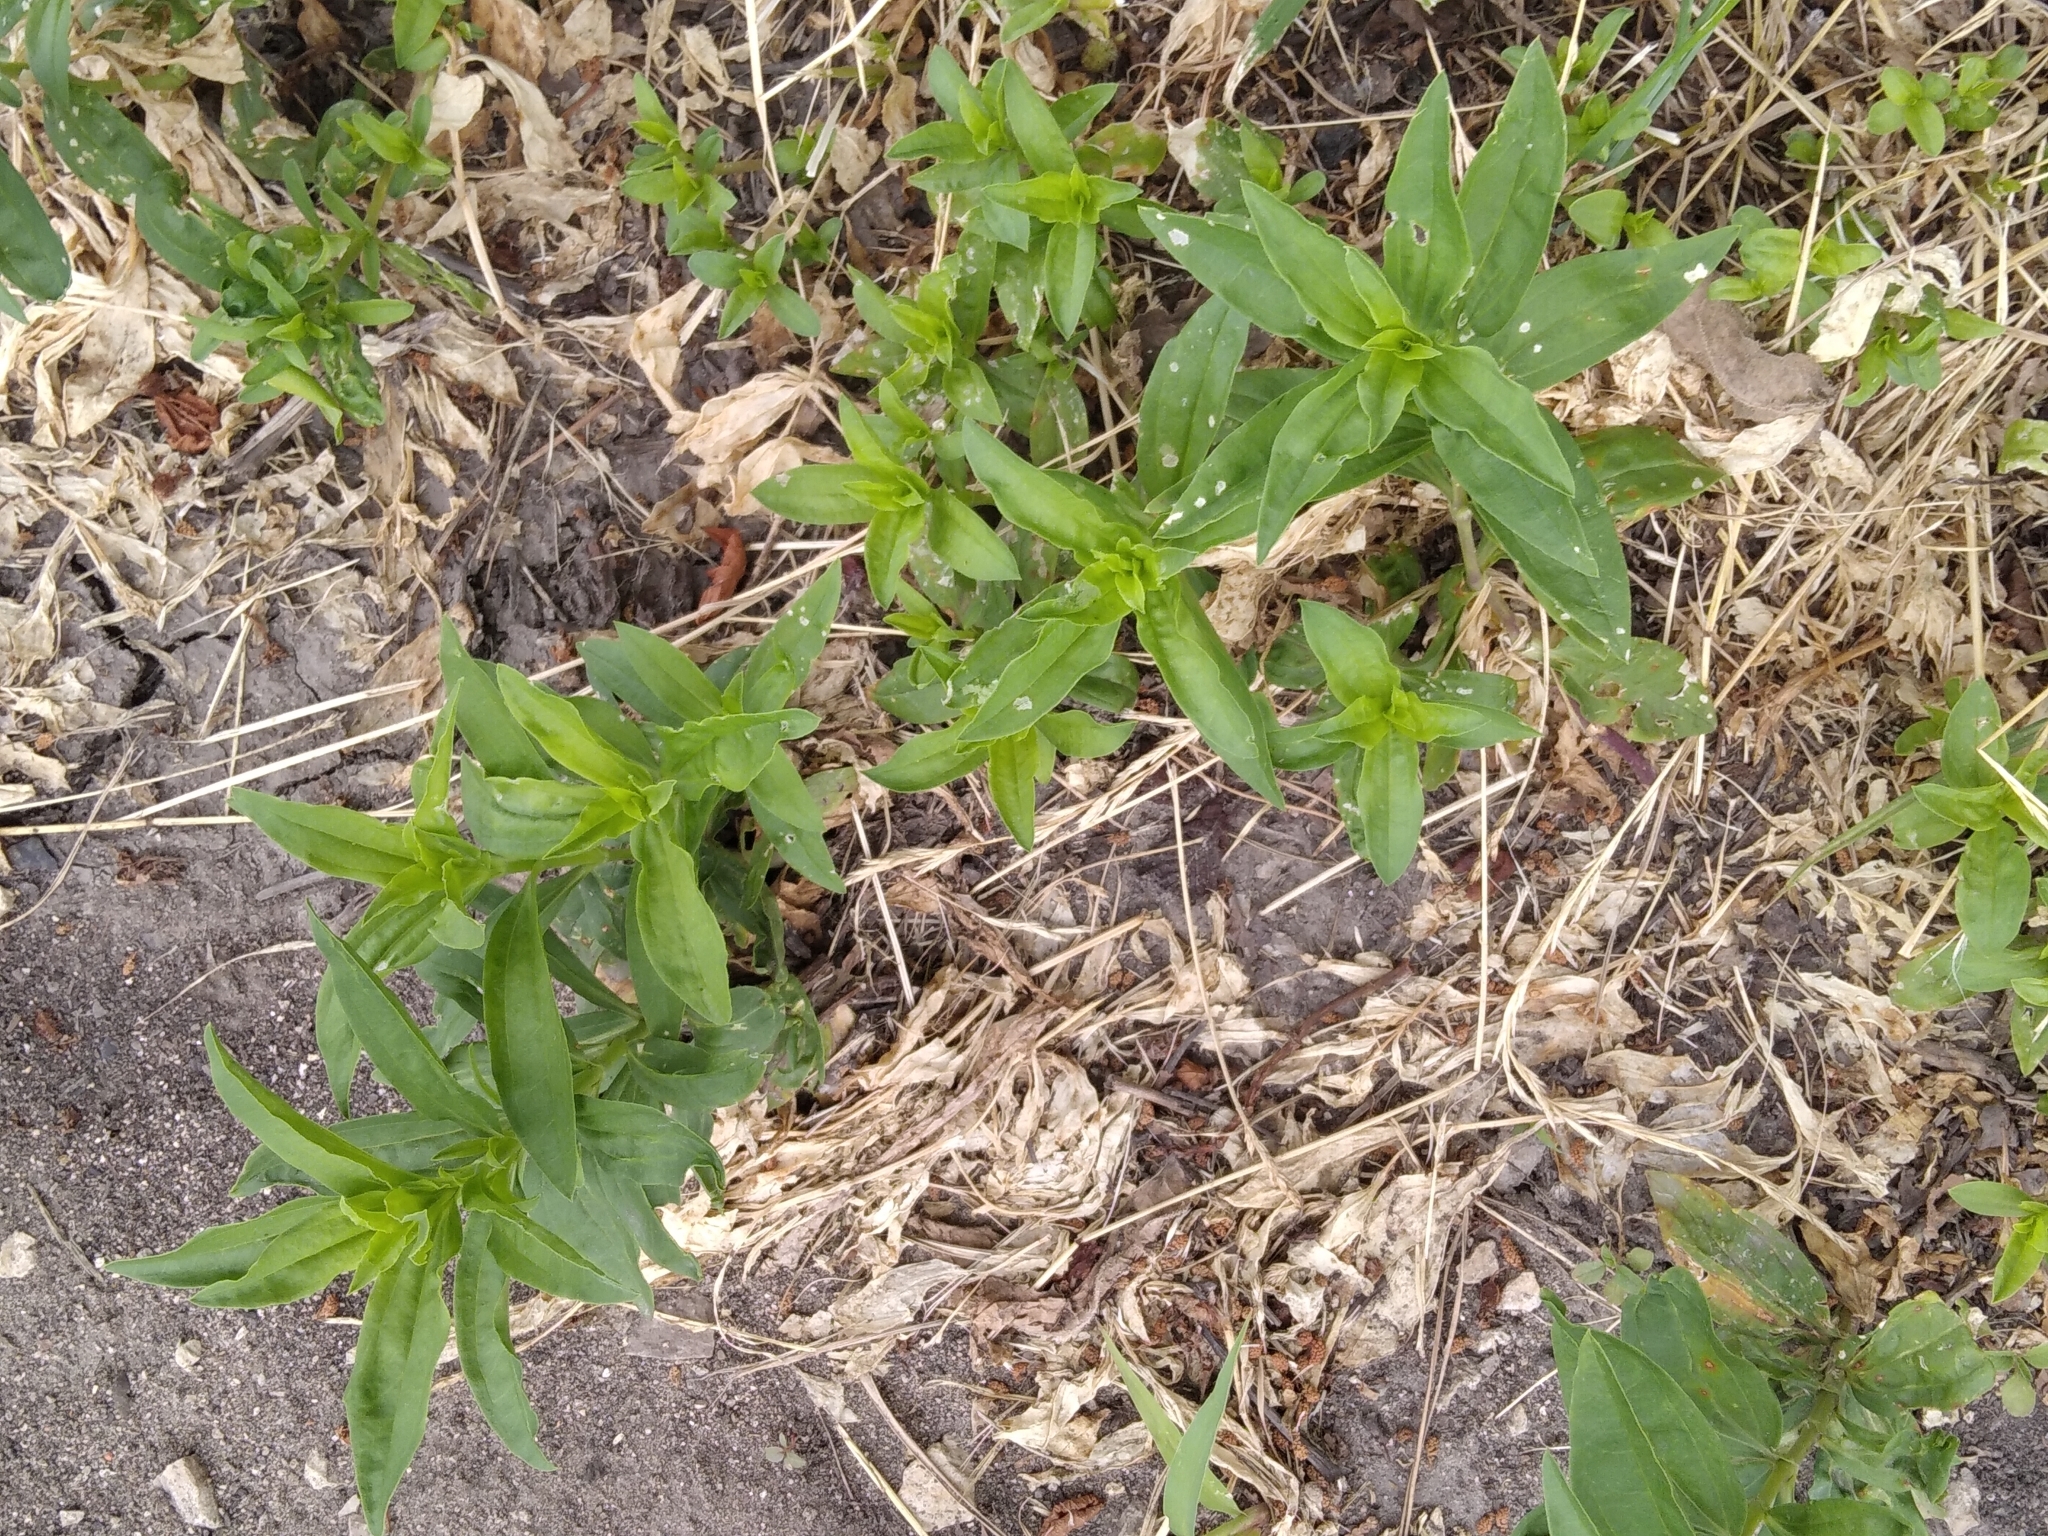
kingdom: Plantae
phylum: Tracheophyta
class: Magnoliopsida
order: Caryophyllales
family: Caryophyllaceae
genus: Saponaria
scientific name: Saponaria officinalis
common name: Soapwort
